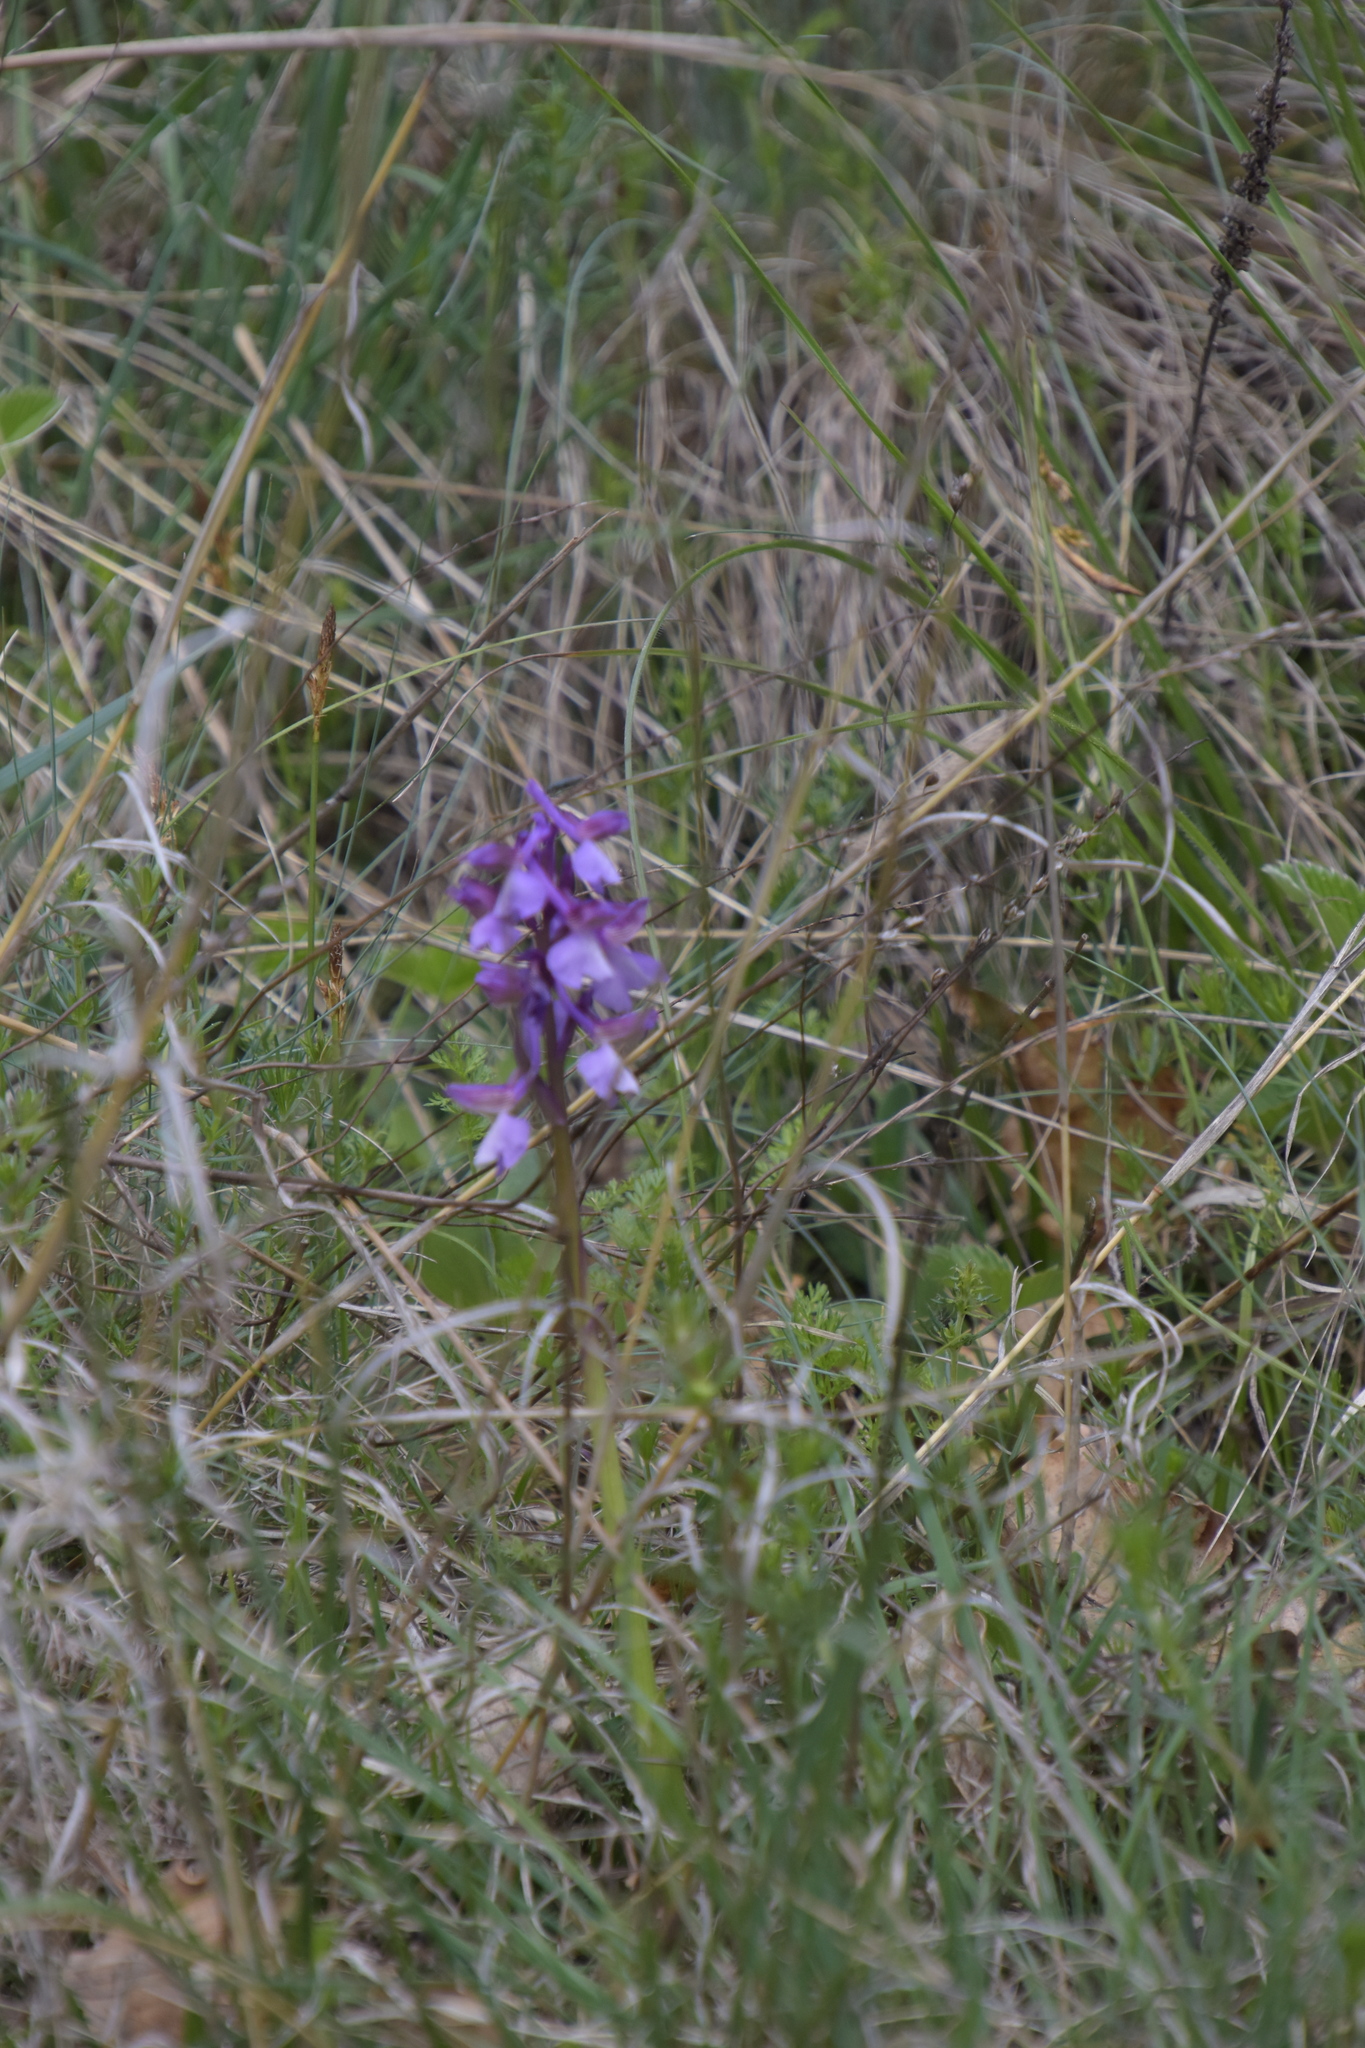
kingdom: Plantae
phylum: Tracheophyta
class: Liliopsida
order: Asparagales
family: Orchidaceae
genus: Anacamptis
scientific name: Anacamptis morio
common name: Green-winged orchid
